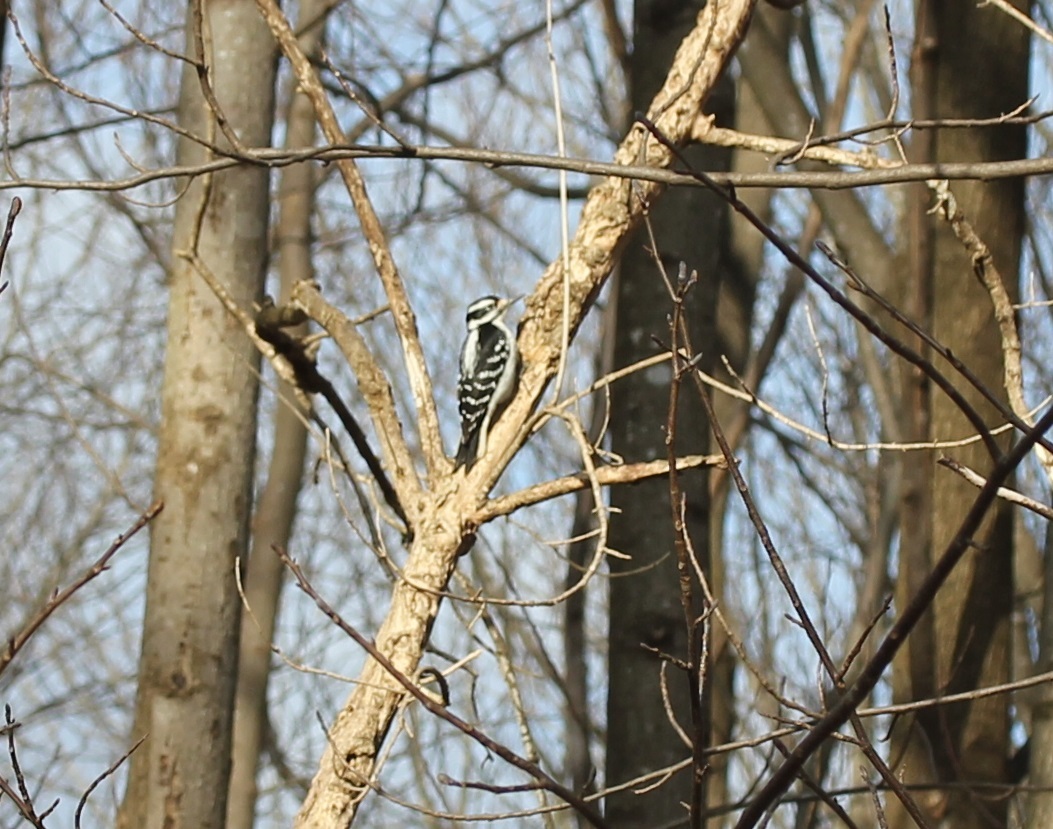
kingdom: Animalia
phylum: Chordata
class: Aves
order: Piciformes
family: Picidae
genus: Leuconotopicus
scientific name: Leuconotopicus villosus
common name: Hairy woodpecker
